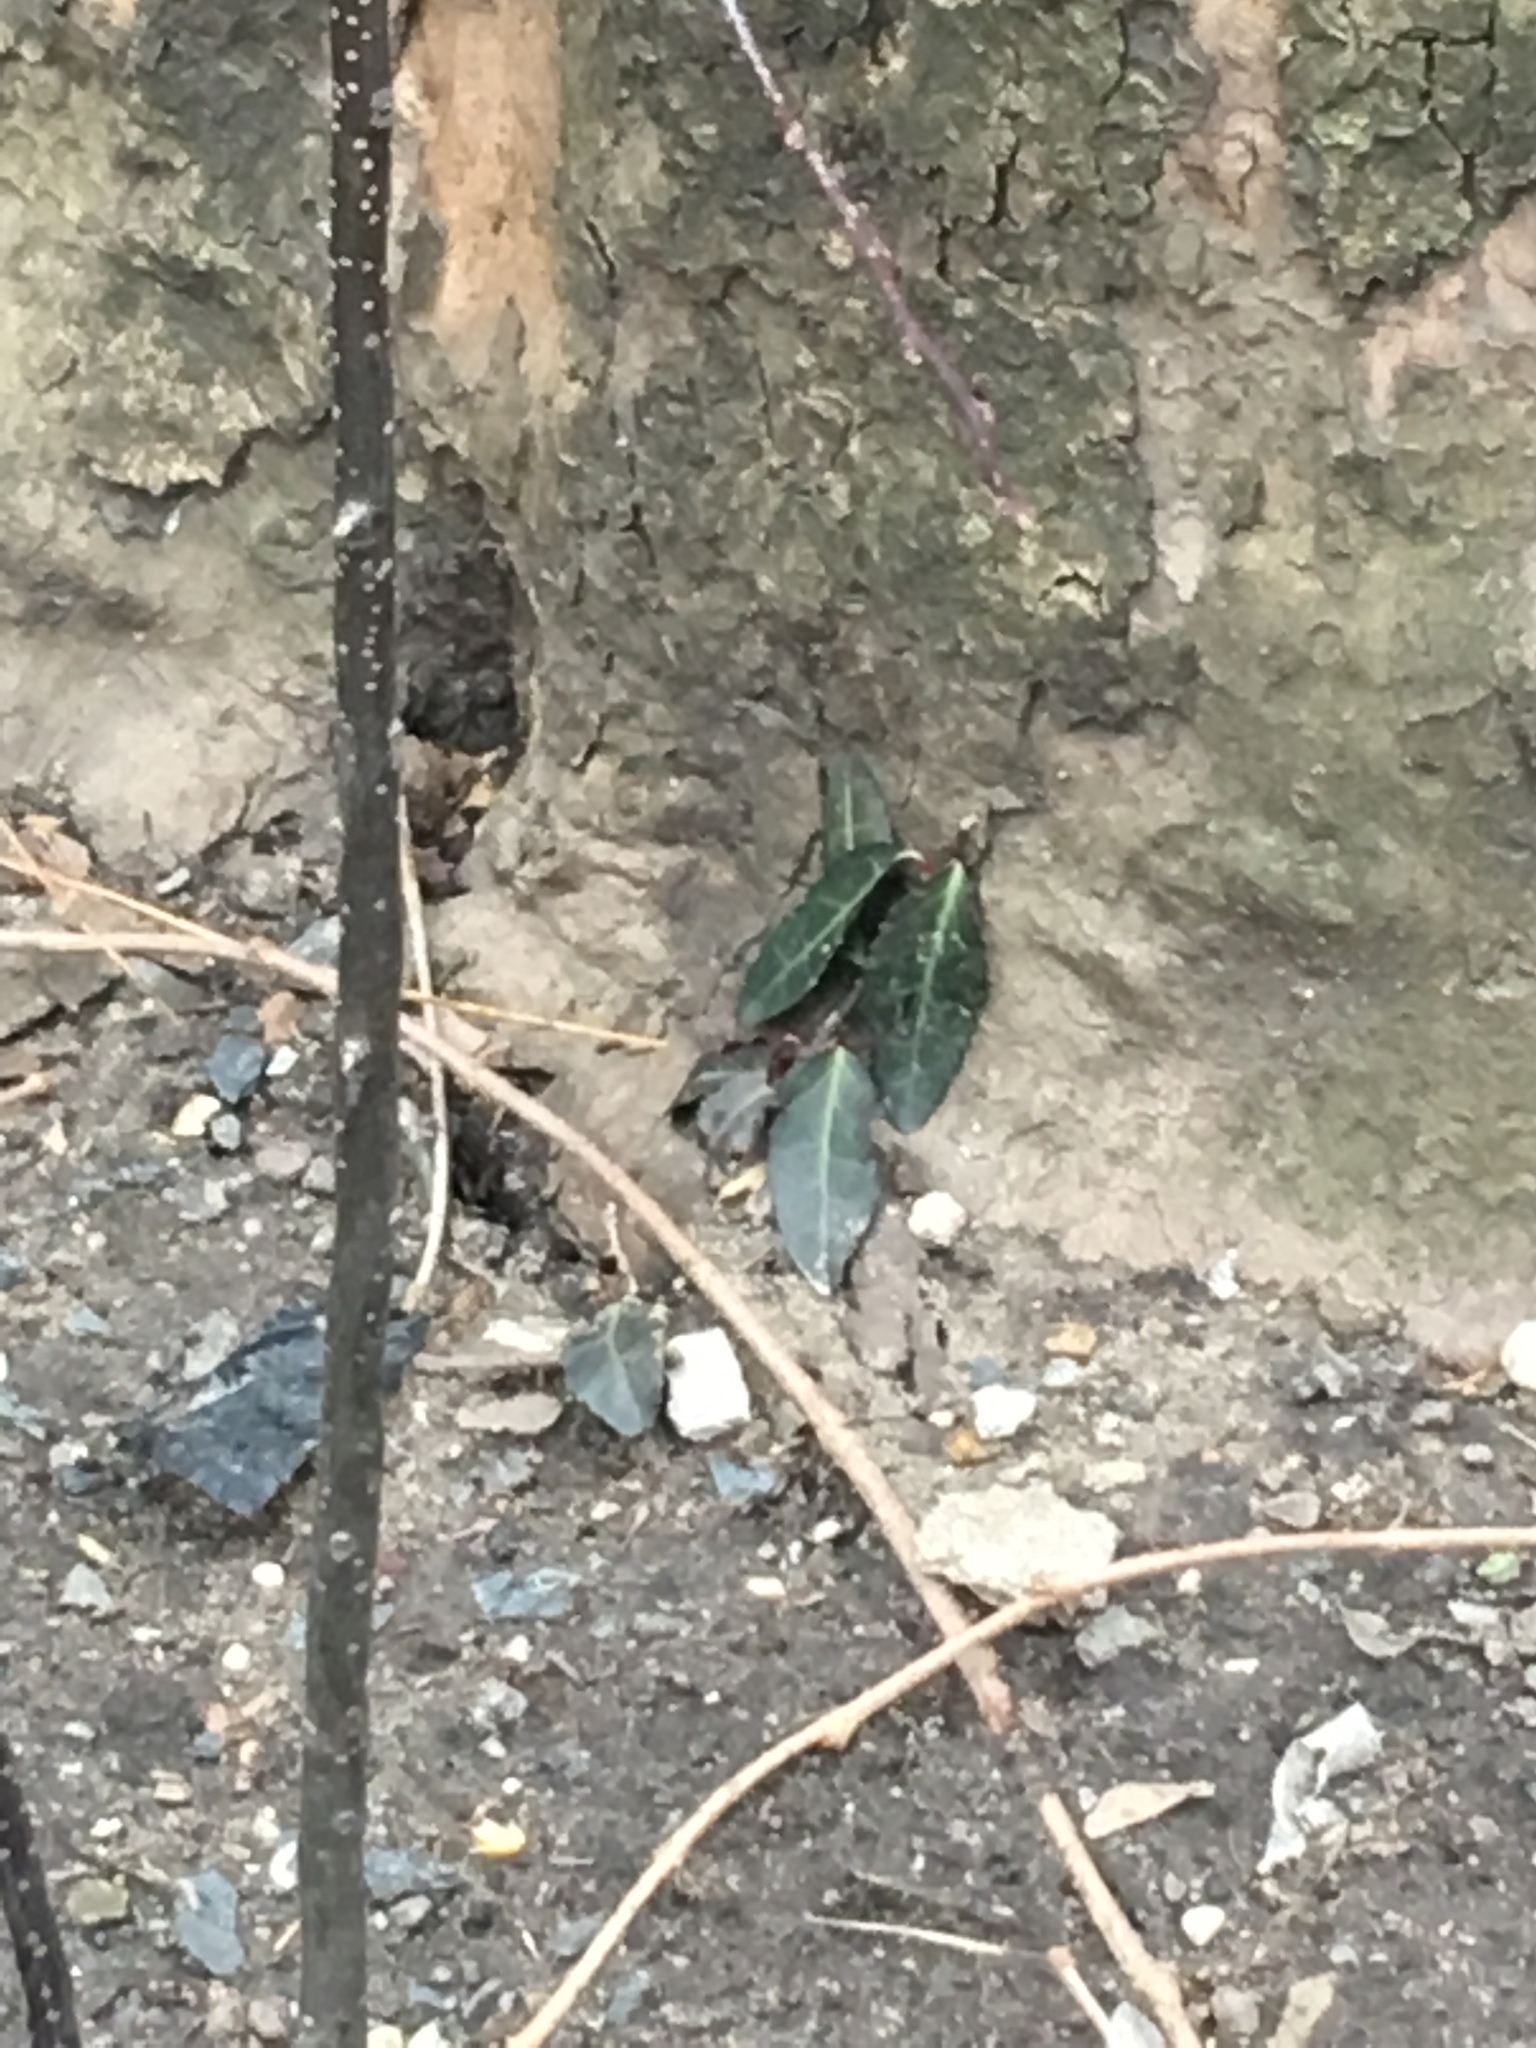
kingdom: Plantae
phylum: Tracheophyta
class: Magnoliopsida
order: Celastrales
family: Celastraceae
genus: Euonymus
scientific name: Euonymus fortunei
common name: Climbing euonymus
